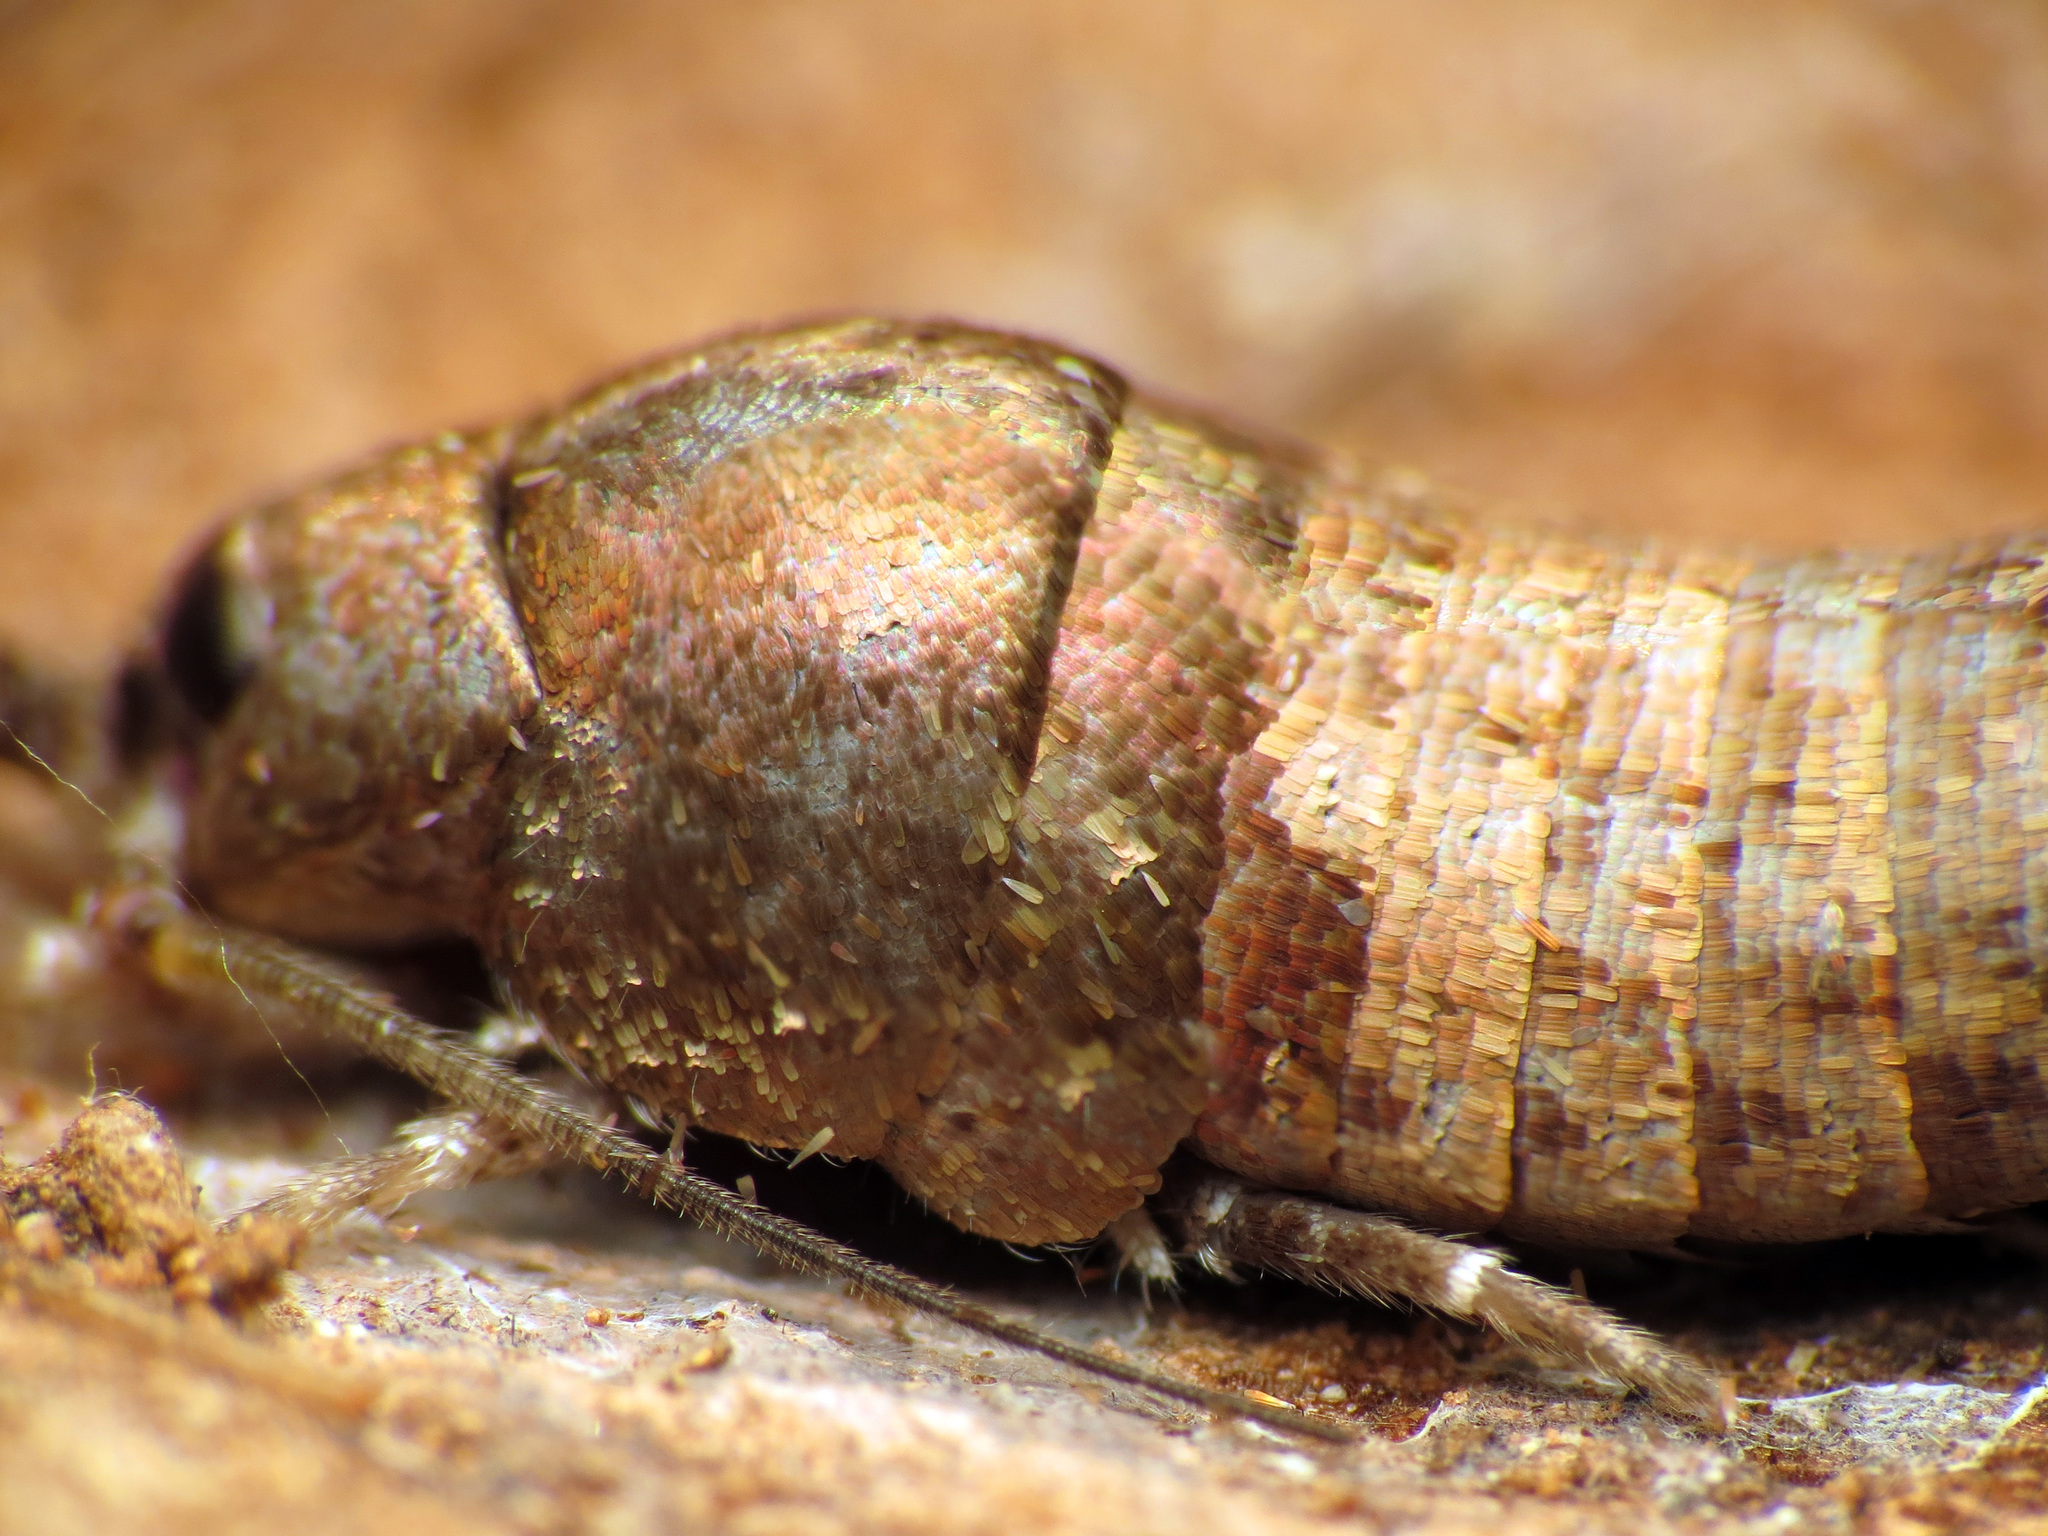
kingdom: Animalia
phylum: Arthropoda
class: Insecta
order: Archaeognatha
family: Machilidae
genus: Pedetontus
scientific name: Pedetontus saltator
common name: Jumping bristletail
